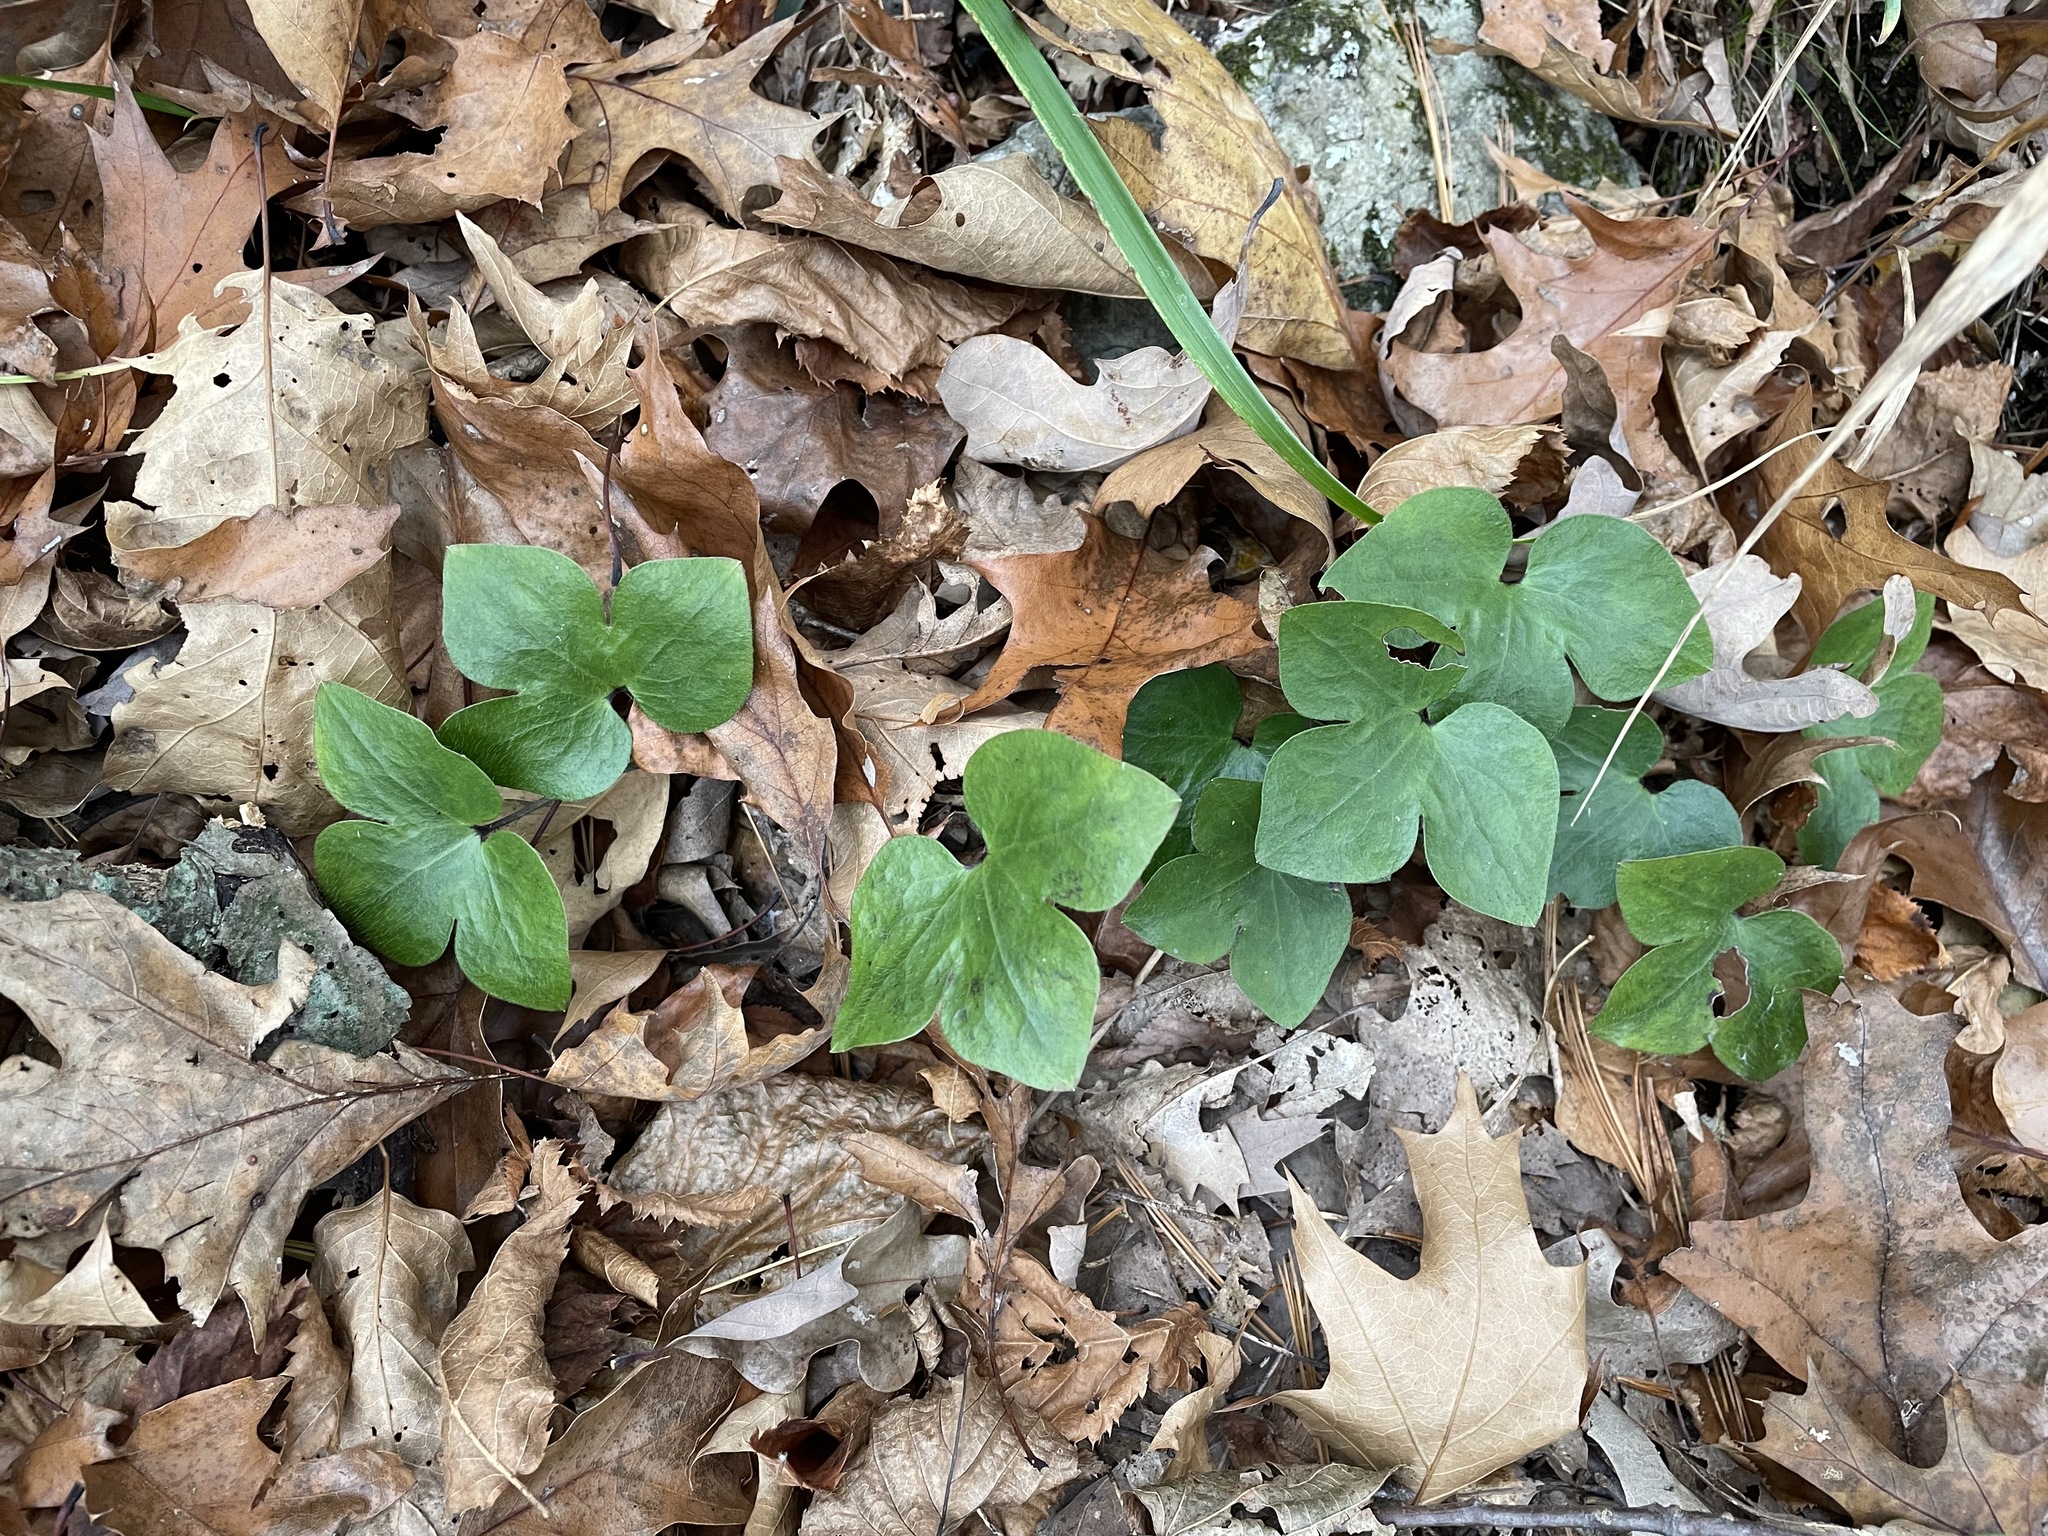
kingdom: Plantae
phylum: Tracheophyta
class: Magnoliopsida
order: Ranunculales
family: Ranunculaceae
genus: Hepatica
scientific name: Hepatica acutiloba
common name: Sharp-lobed hepatica
